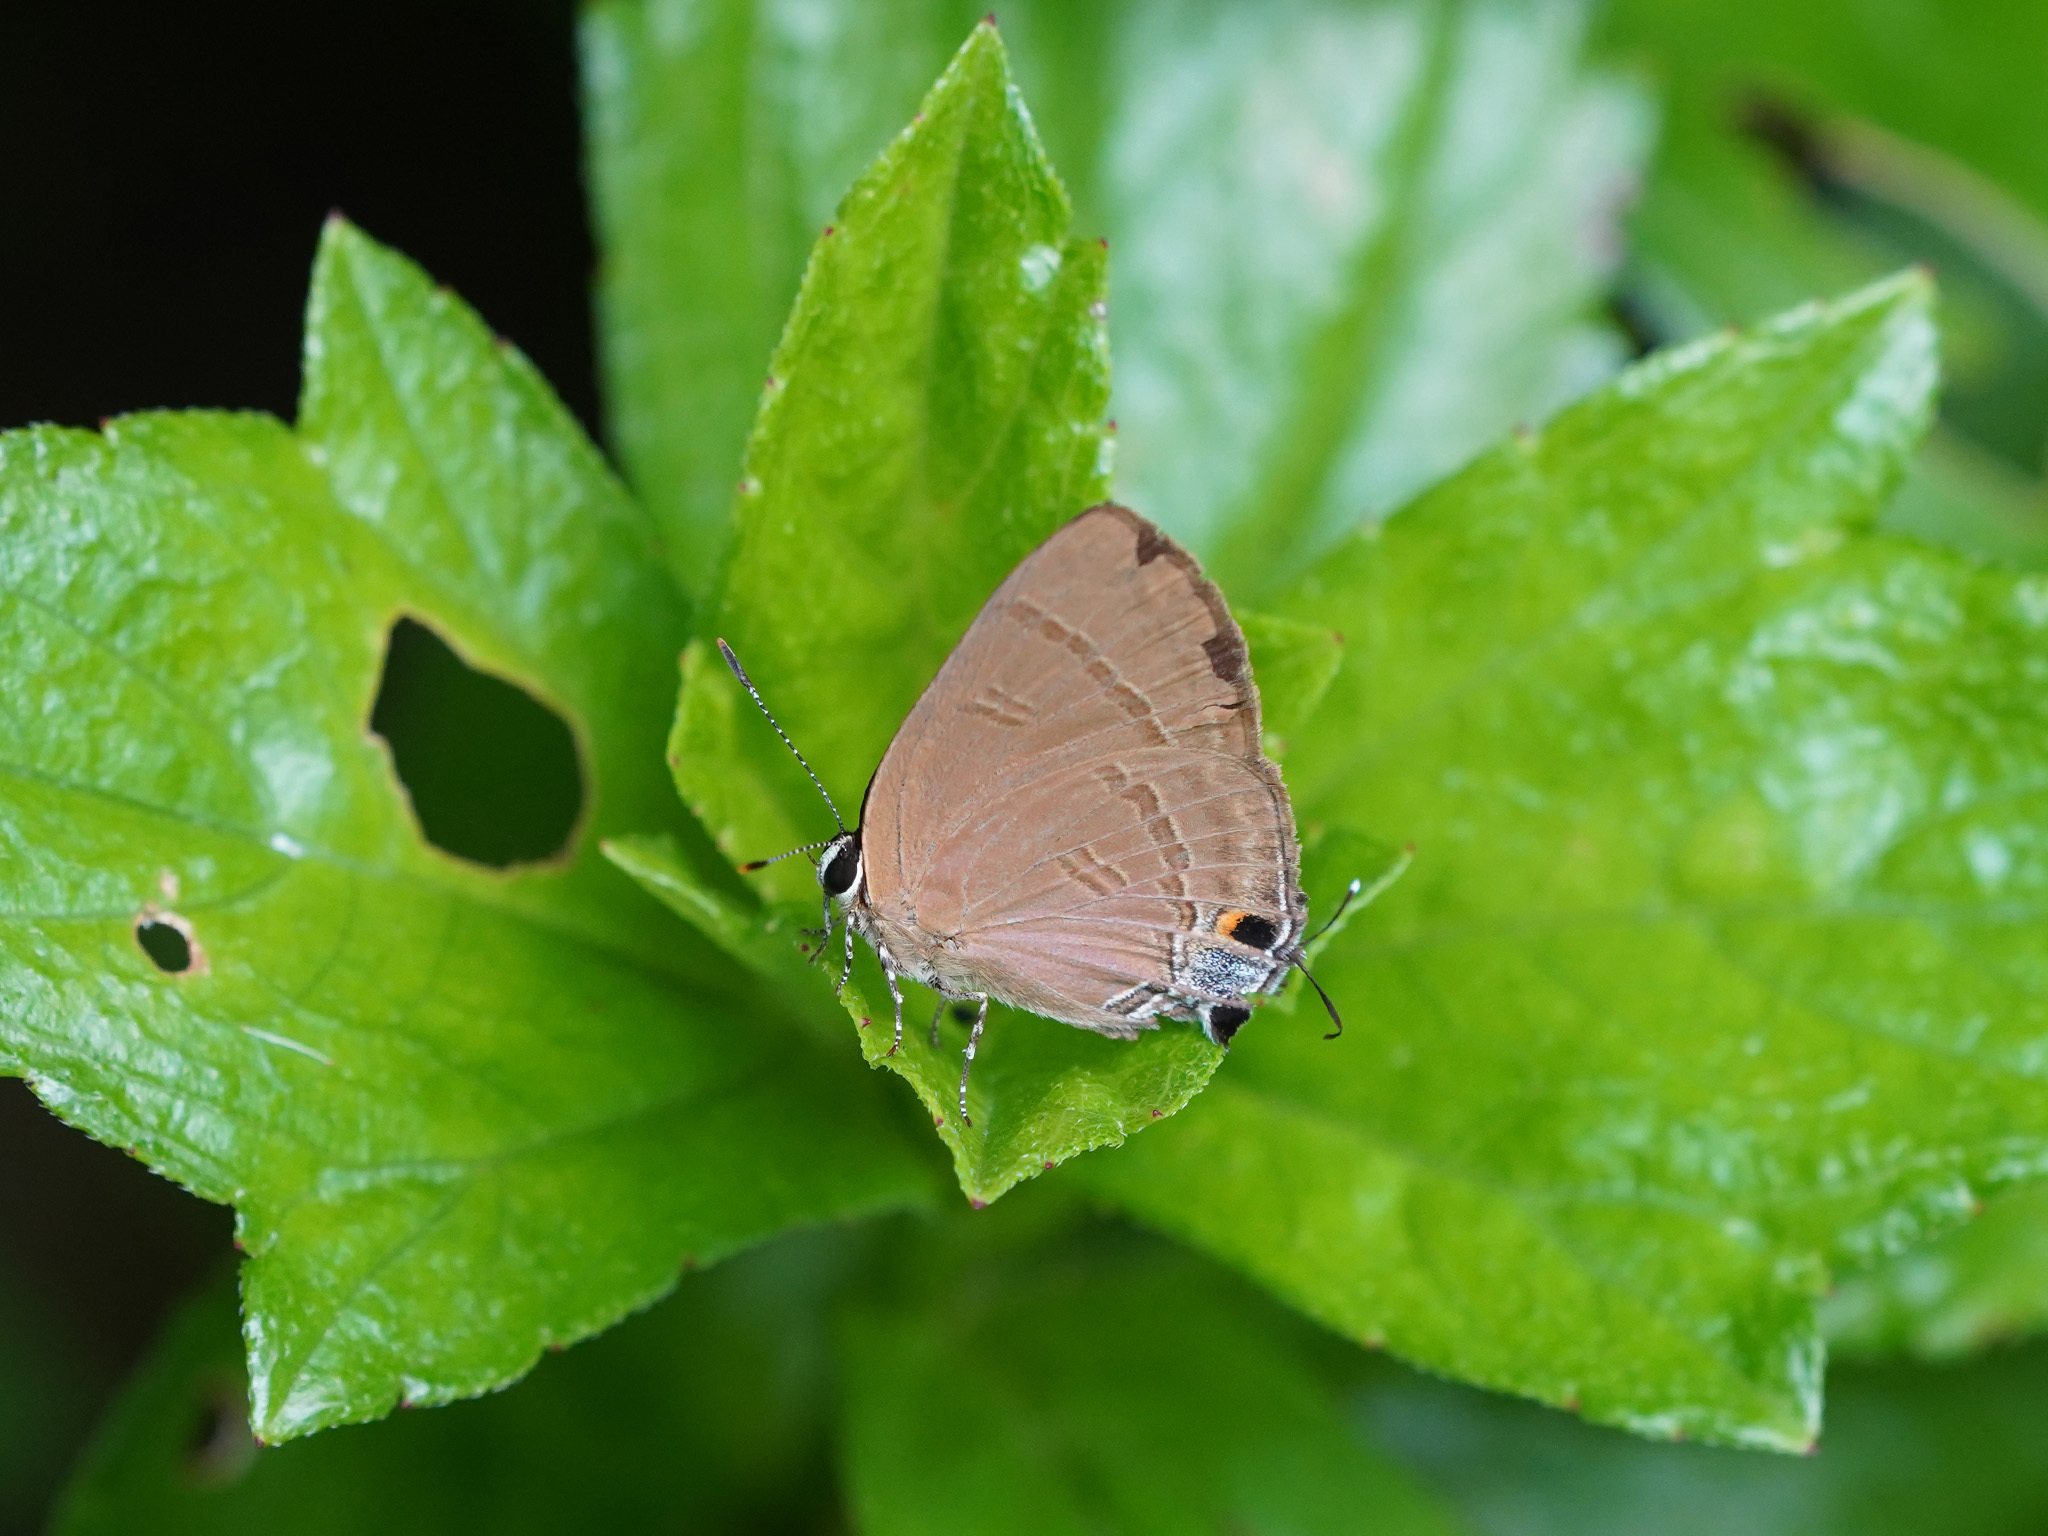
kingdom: Animalia
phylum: Arthropoda
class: Insecta
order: Lepidoptera
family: Lycaenidae
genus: Rapala
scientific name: Rapala manea
